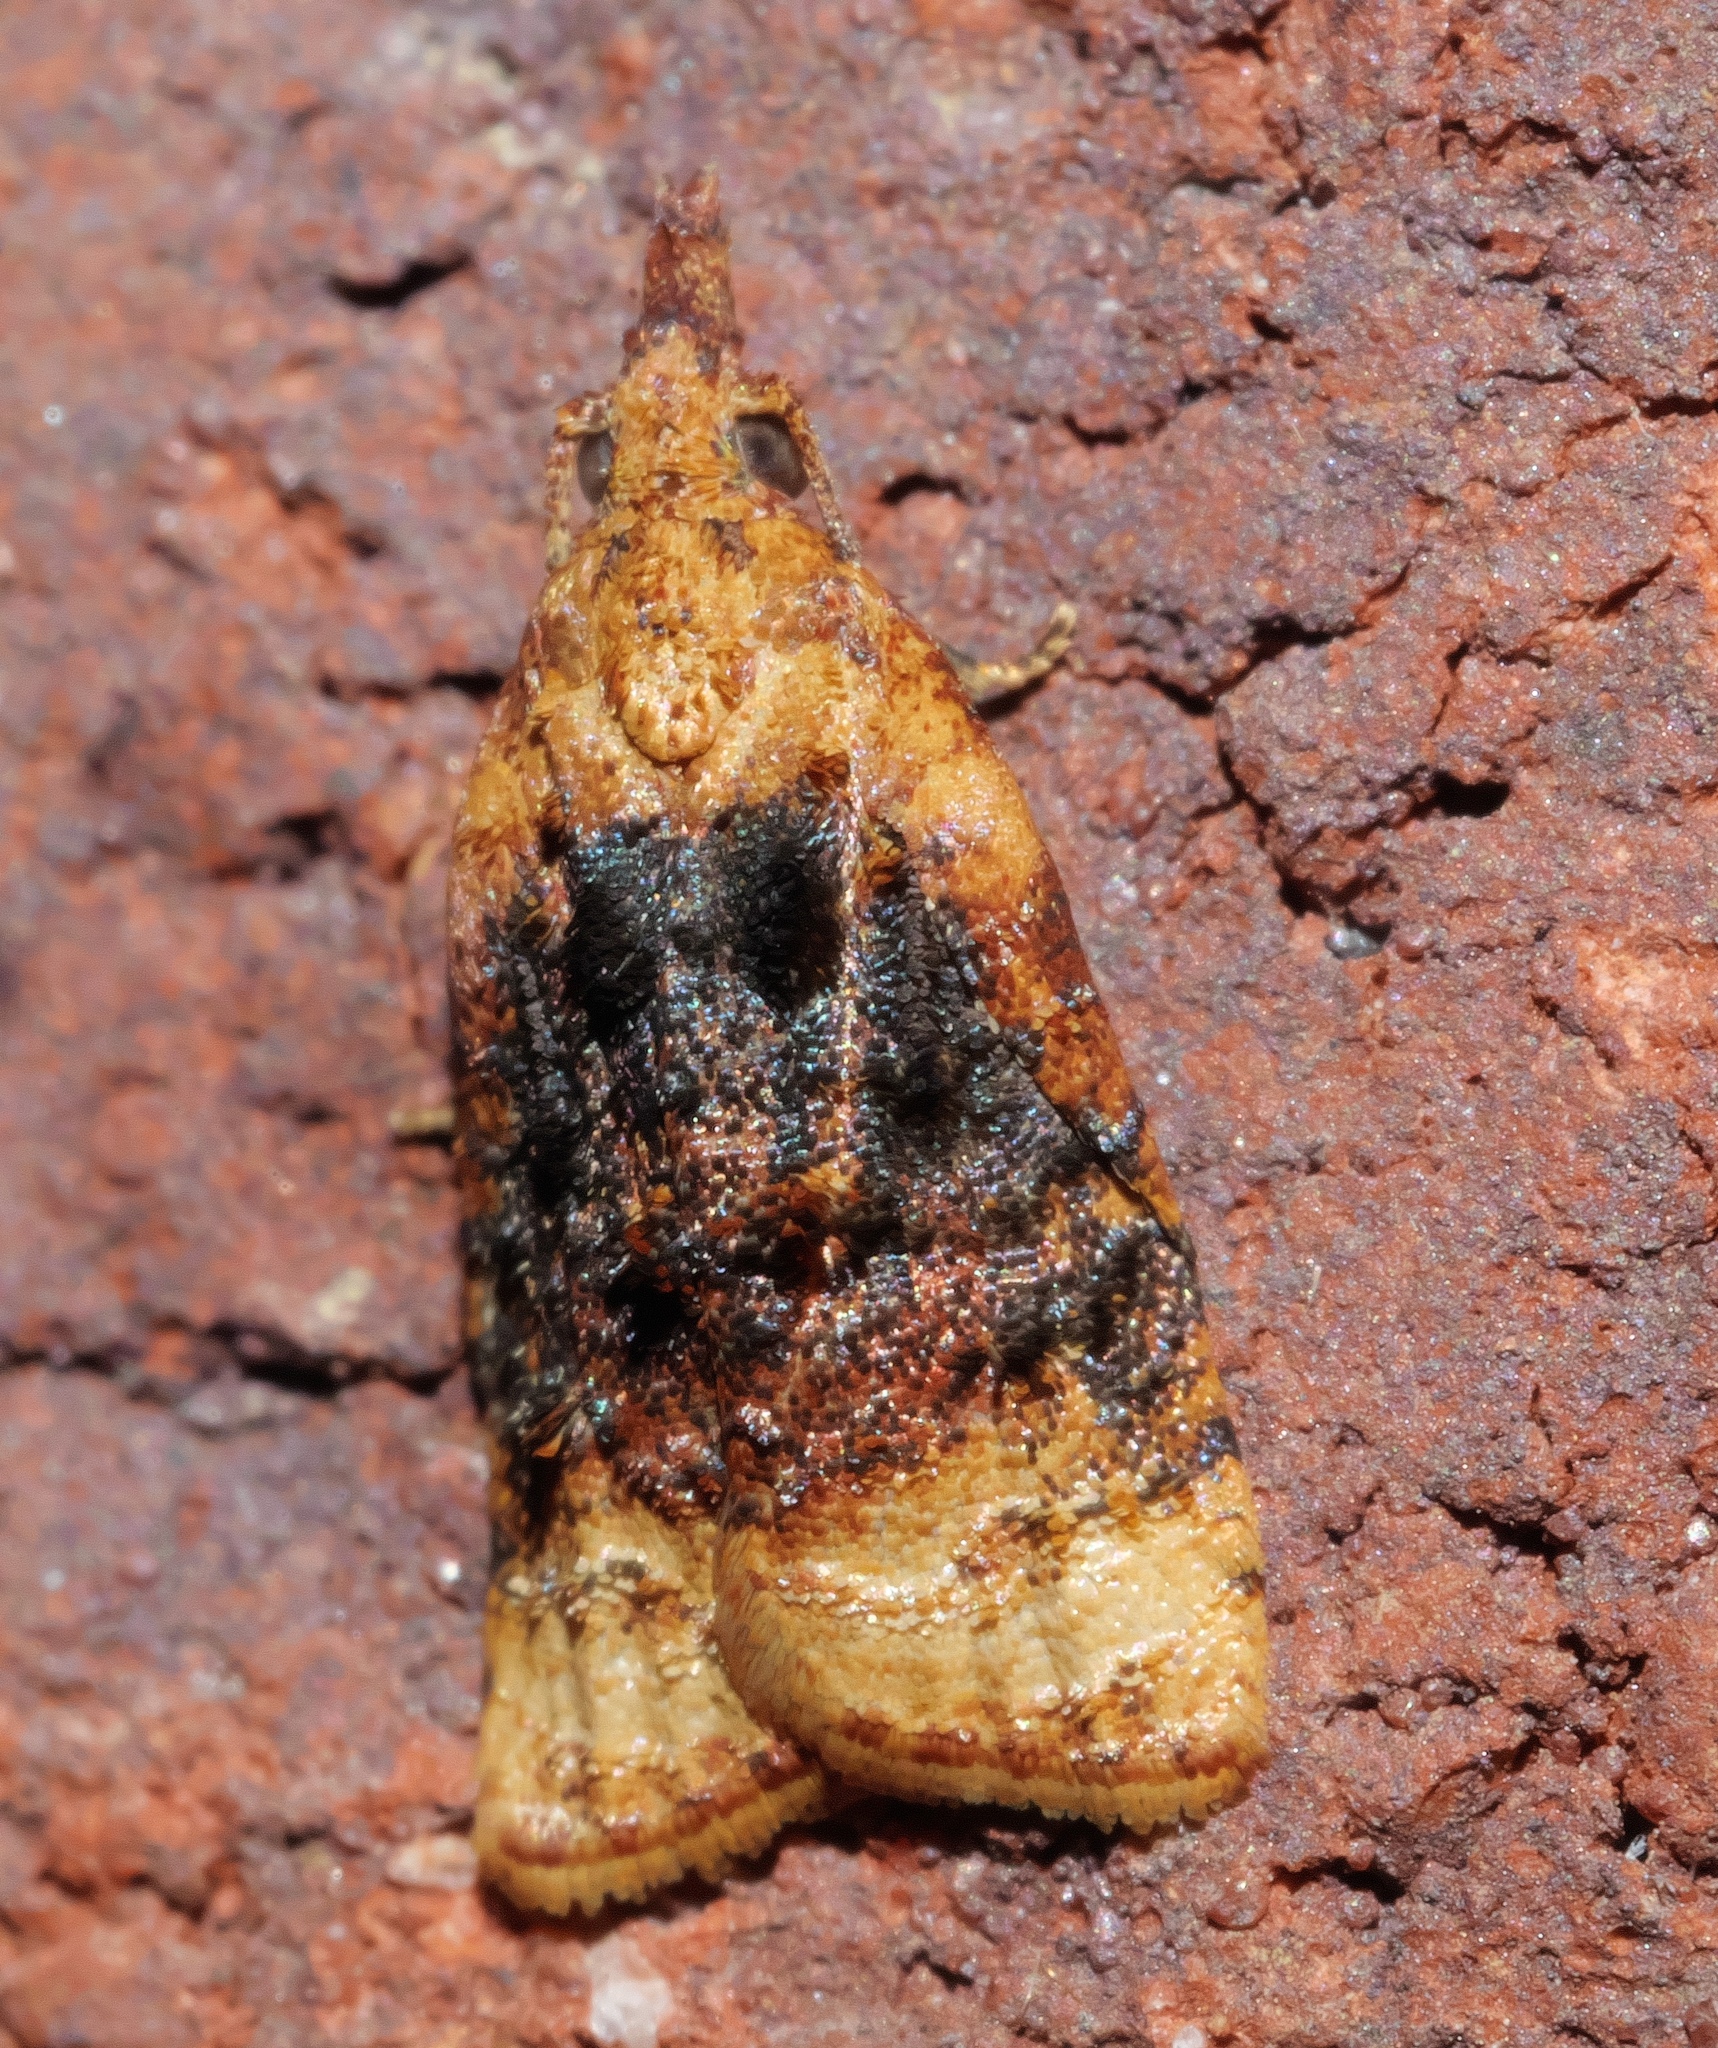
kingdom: Animalia
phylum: Arthropoda
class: Insecta
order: Lepidoptera
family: Tortricidae
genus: Platynota
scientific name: Platynota flavedana
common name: Black-shaded platynota moth
